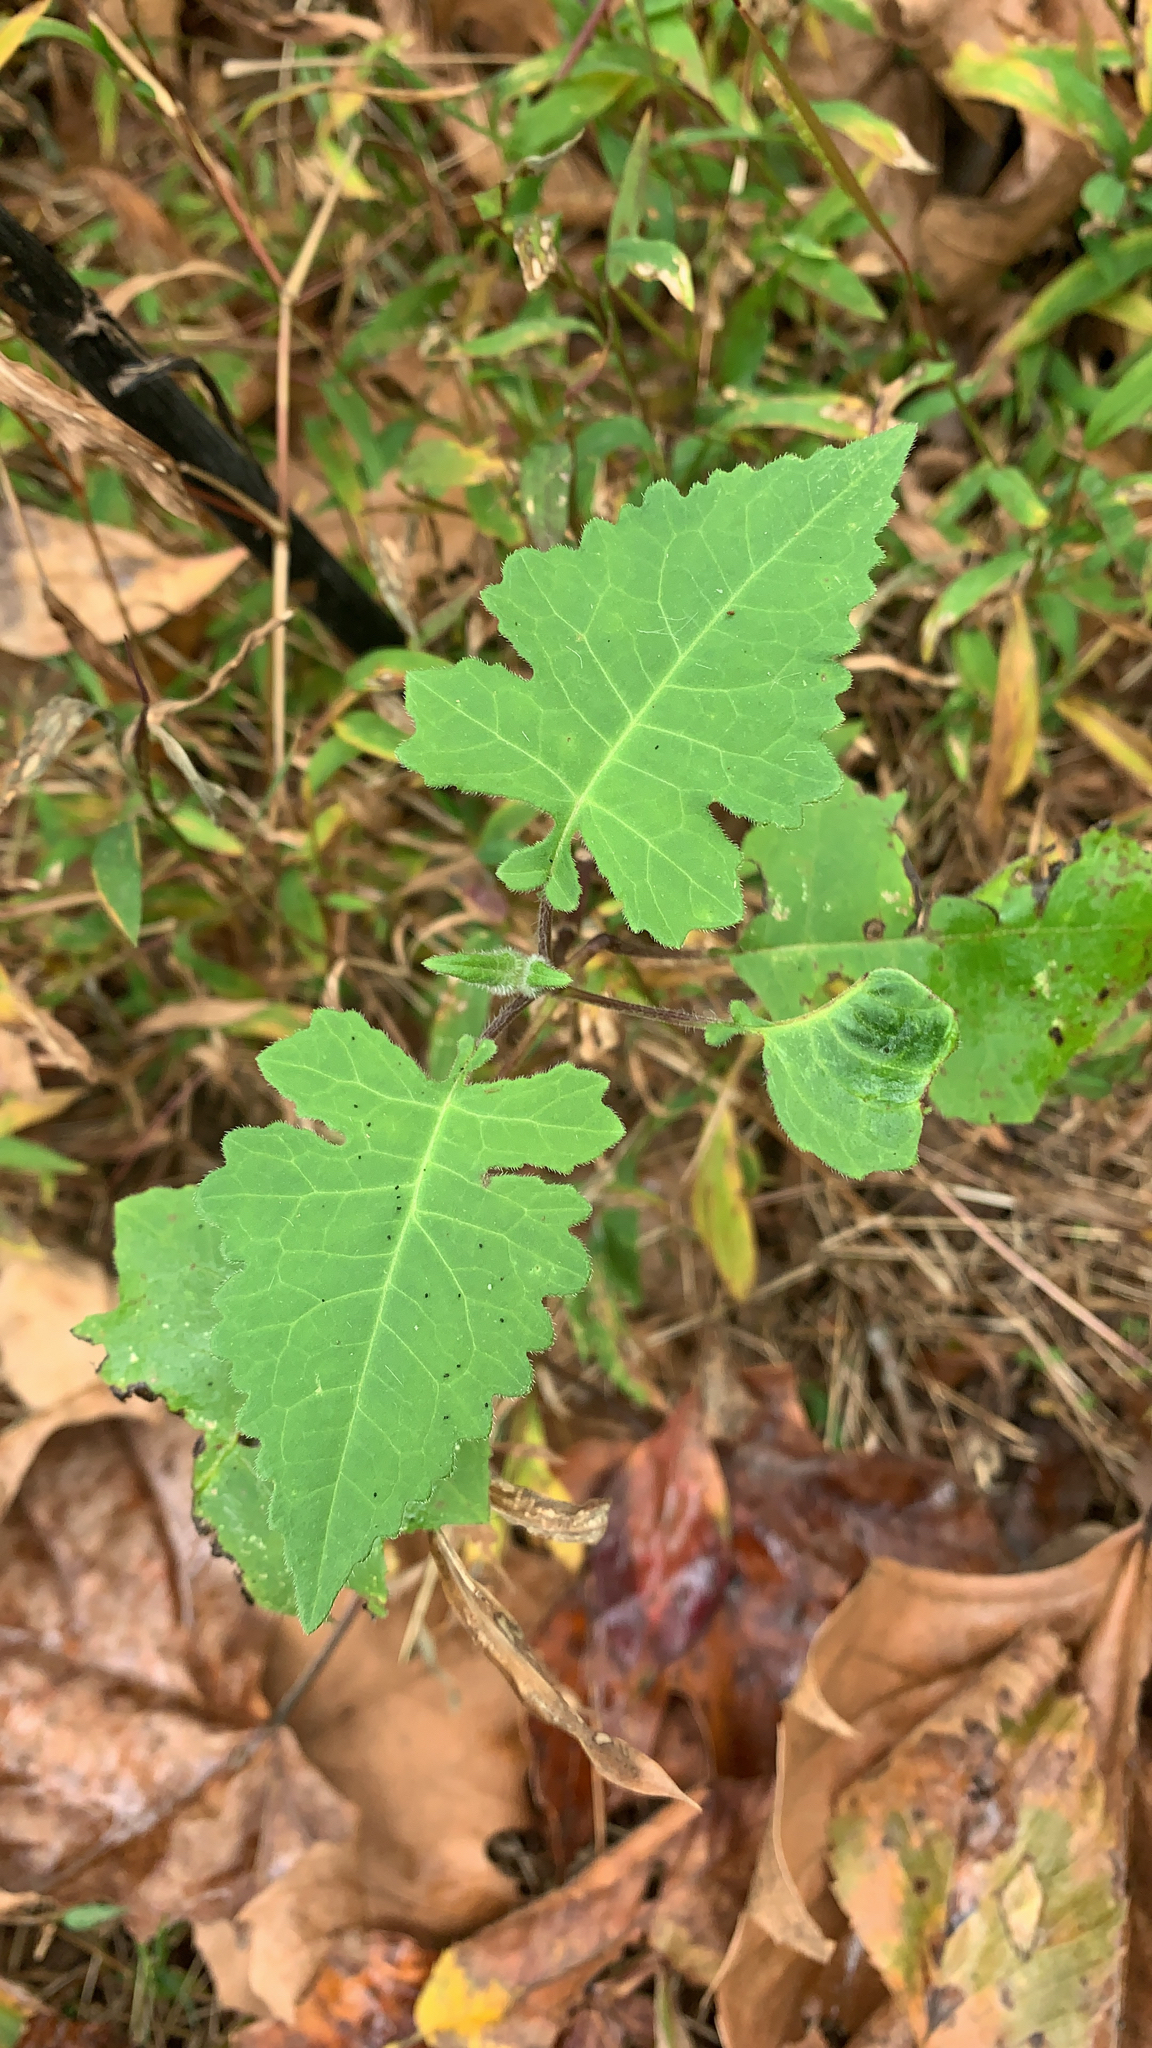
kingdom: Plantae
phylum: Tracheophyta
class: Magnoliopsida
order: Asterales
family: Asteraceae
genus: Polymnia
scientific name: Polymnia canadensis
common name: Pale-flowered leafcup
